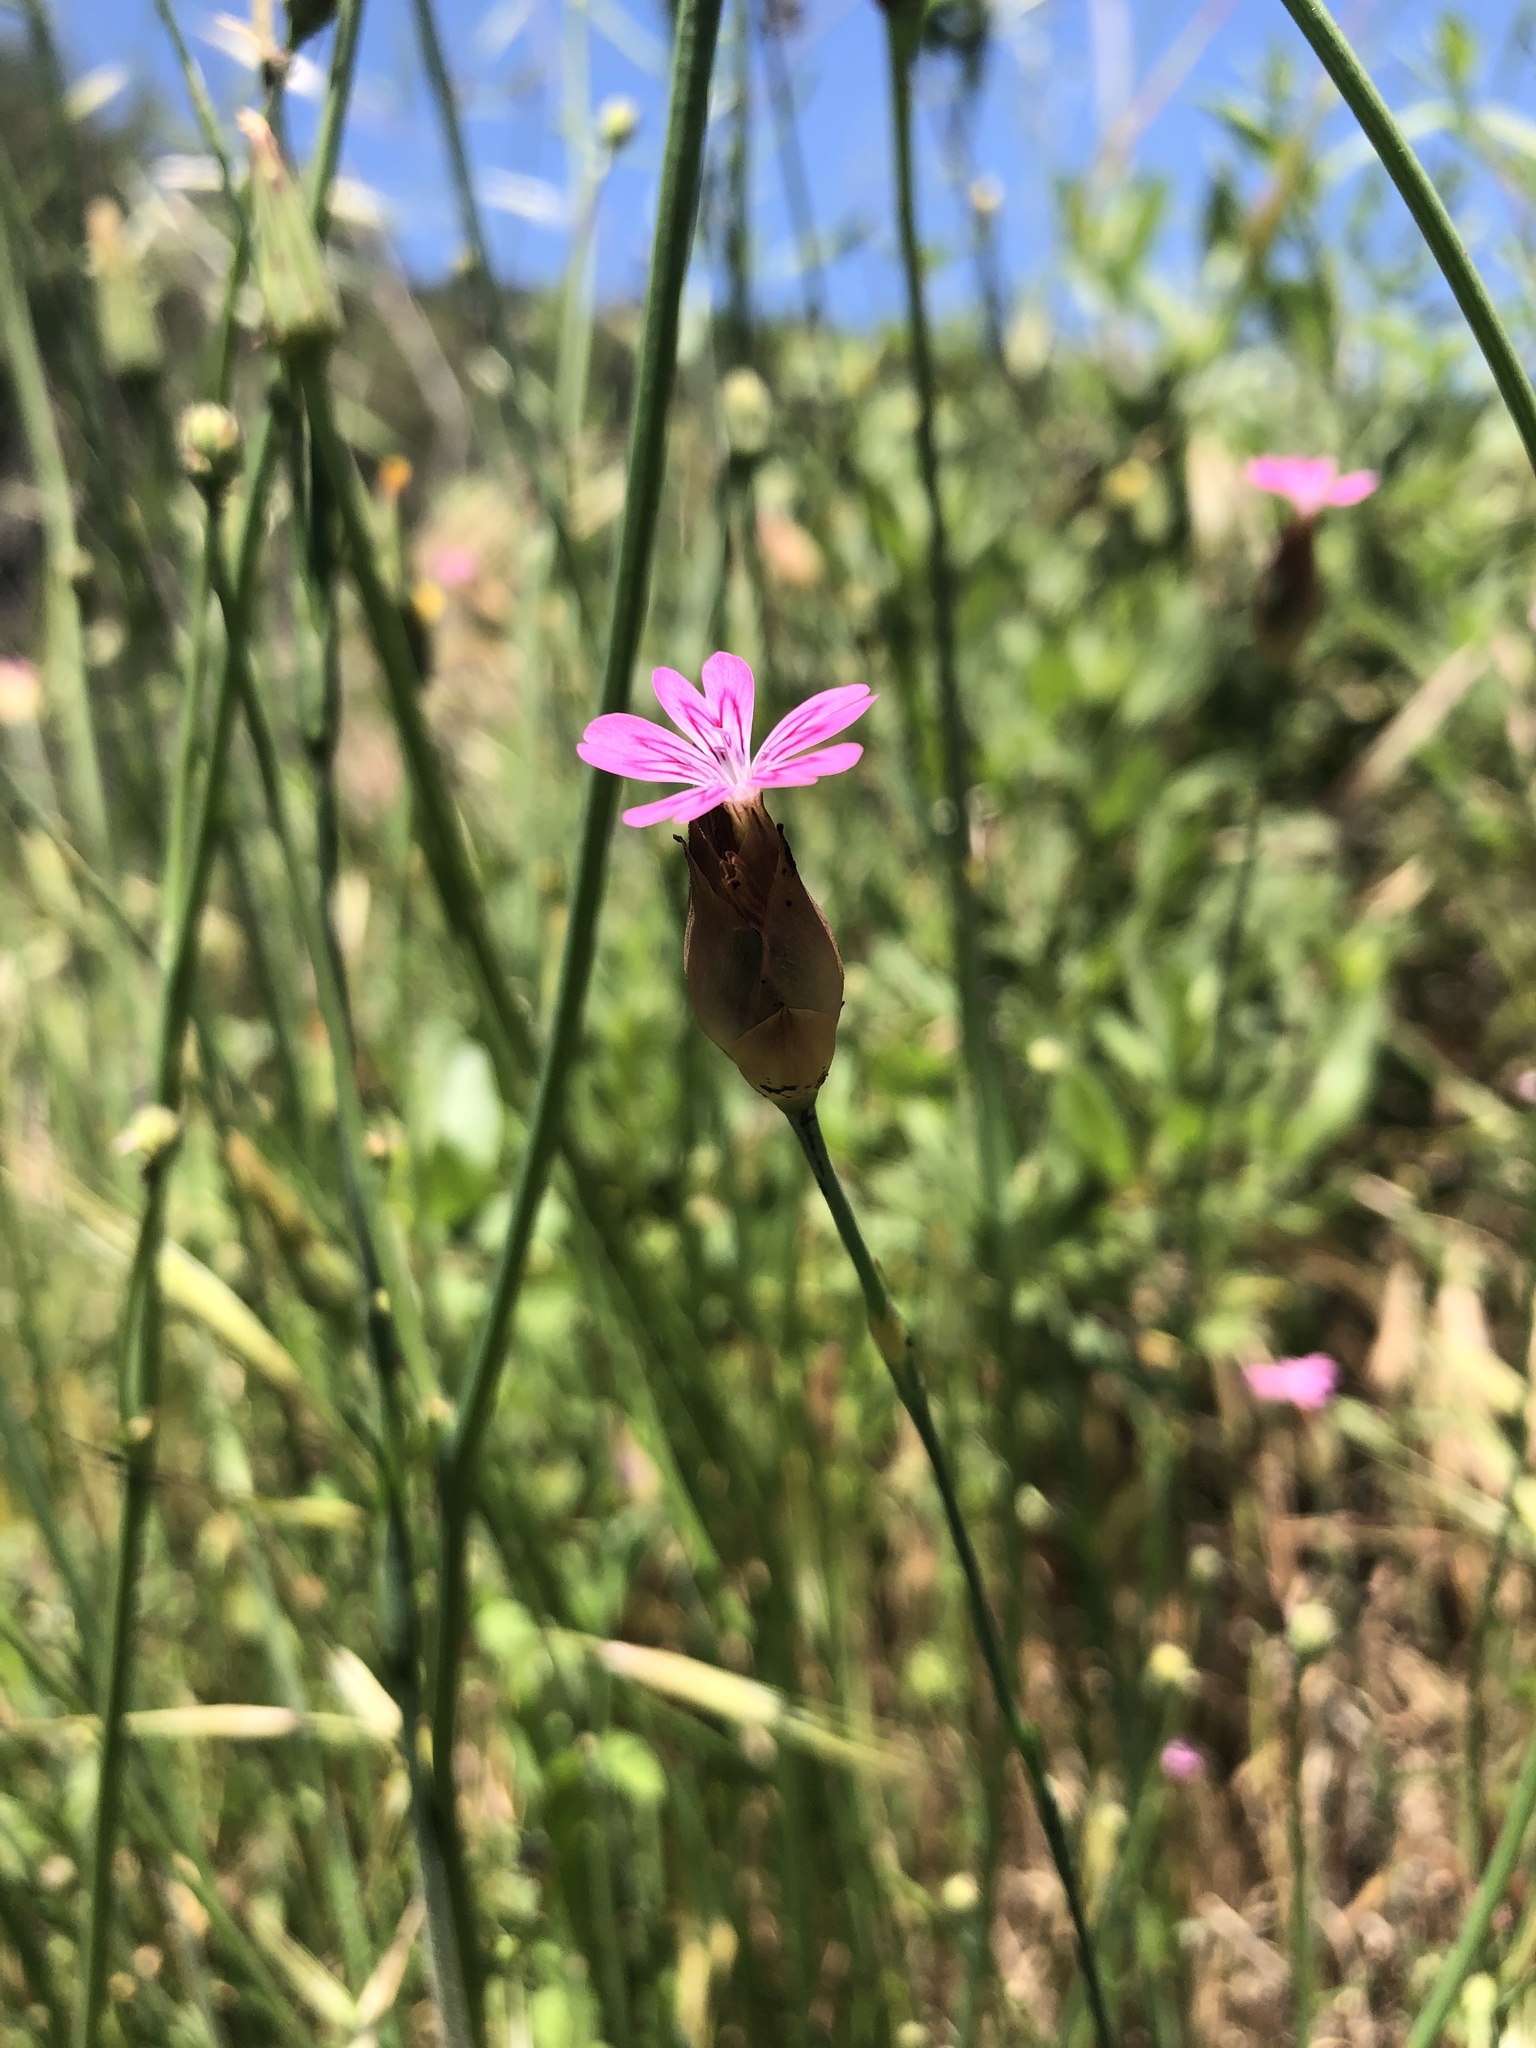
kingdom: Plantae
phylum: Tracheophyta
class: Magnoliopsida
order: Caryophyllales
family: Caryophyllaceae
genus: Petrorhagia
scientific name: Petrorhagia dubia
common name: Hairypink
